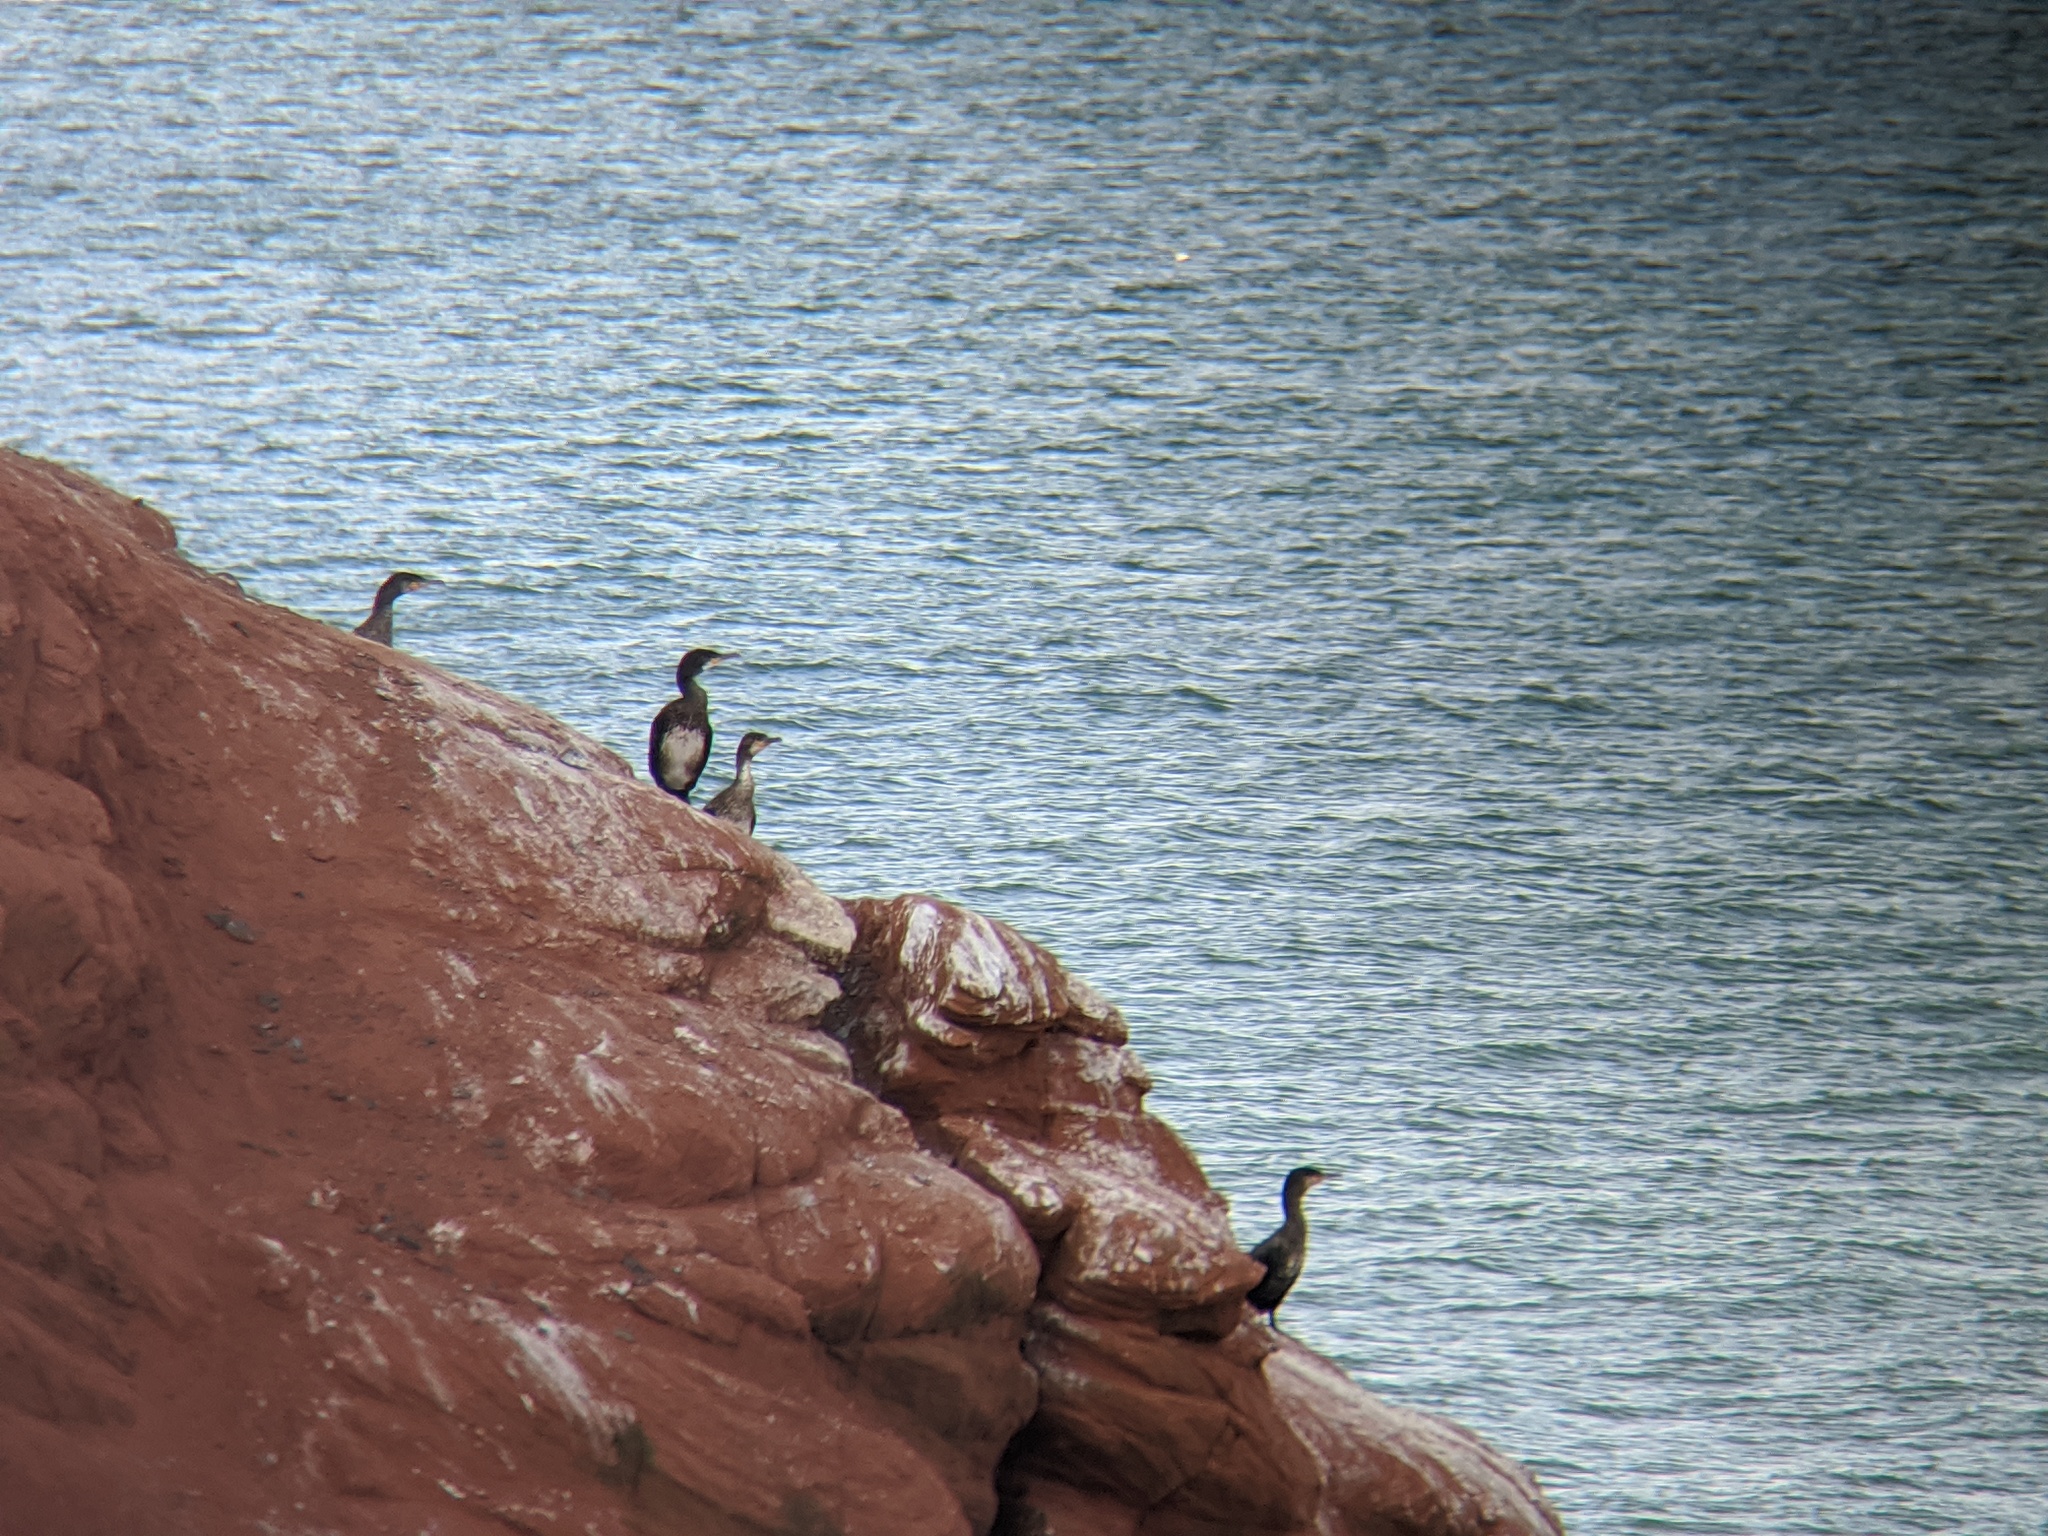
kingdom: Animalia
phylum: Chordata
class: Aves
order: Suliformes
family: Phalacrocoracidae
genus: Phalacrocorax
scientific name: Phalacrocorax auritus
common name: Double-crested cormorant
